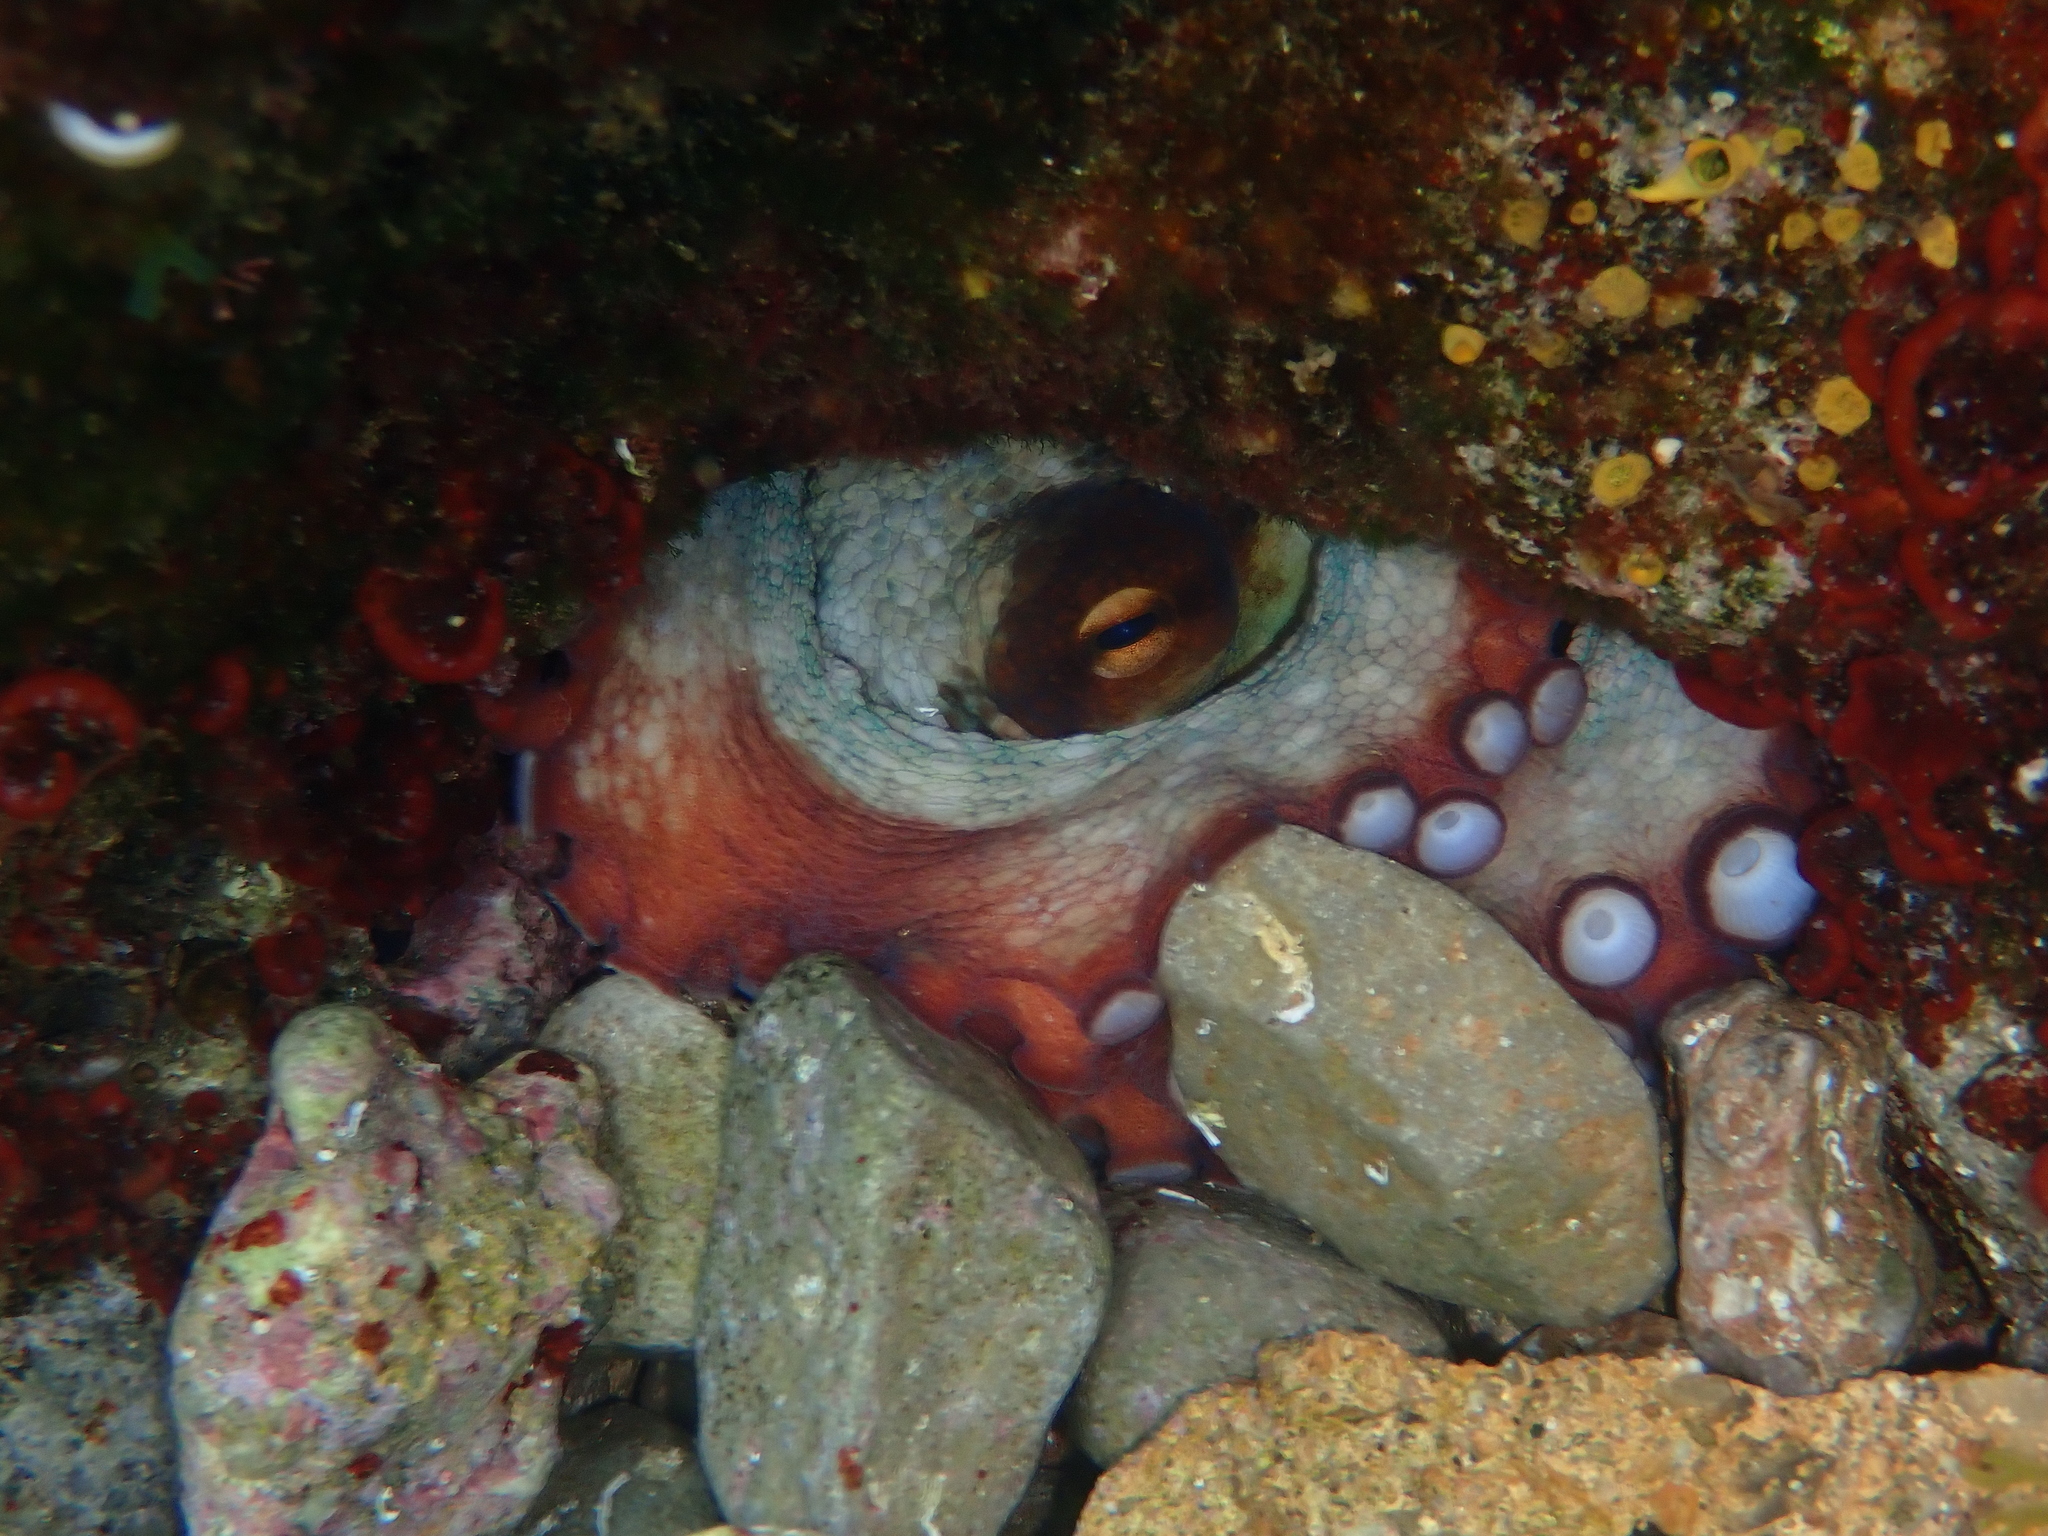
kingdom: Animalia
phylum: Mollusca
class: Cephalopoda
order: Octopoda
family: Octopodidae
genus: Octopus
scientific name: Octopus vulgaris
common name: Common octopus
